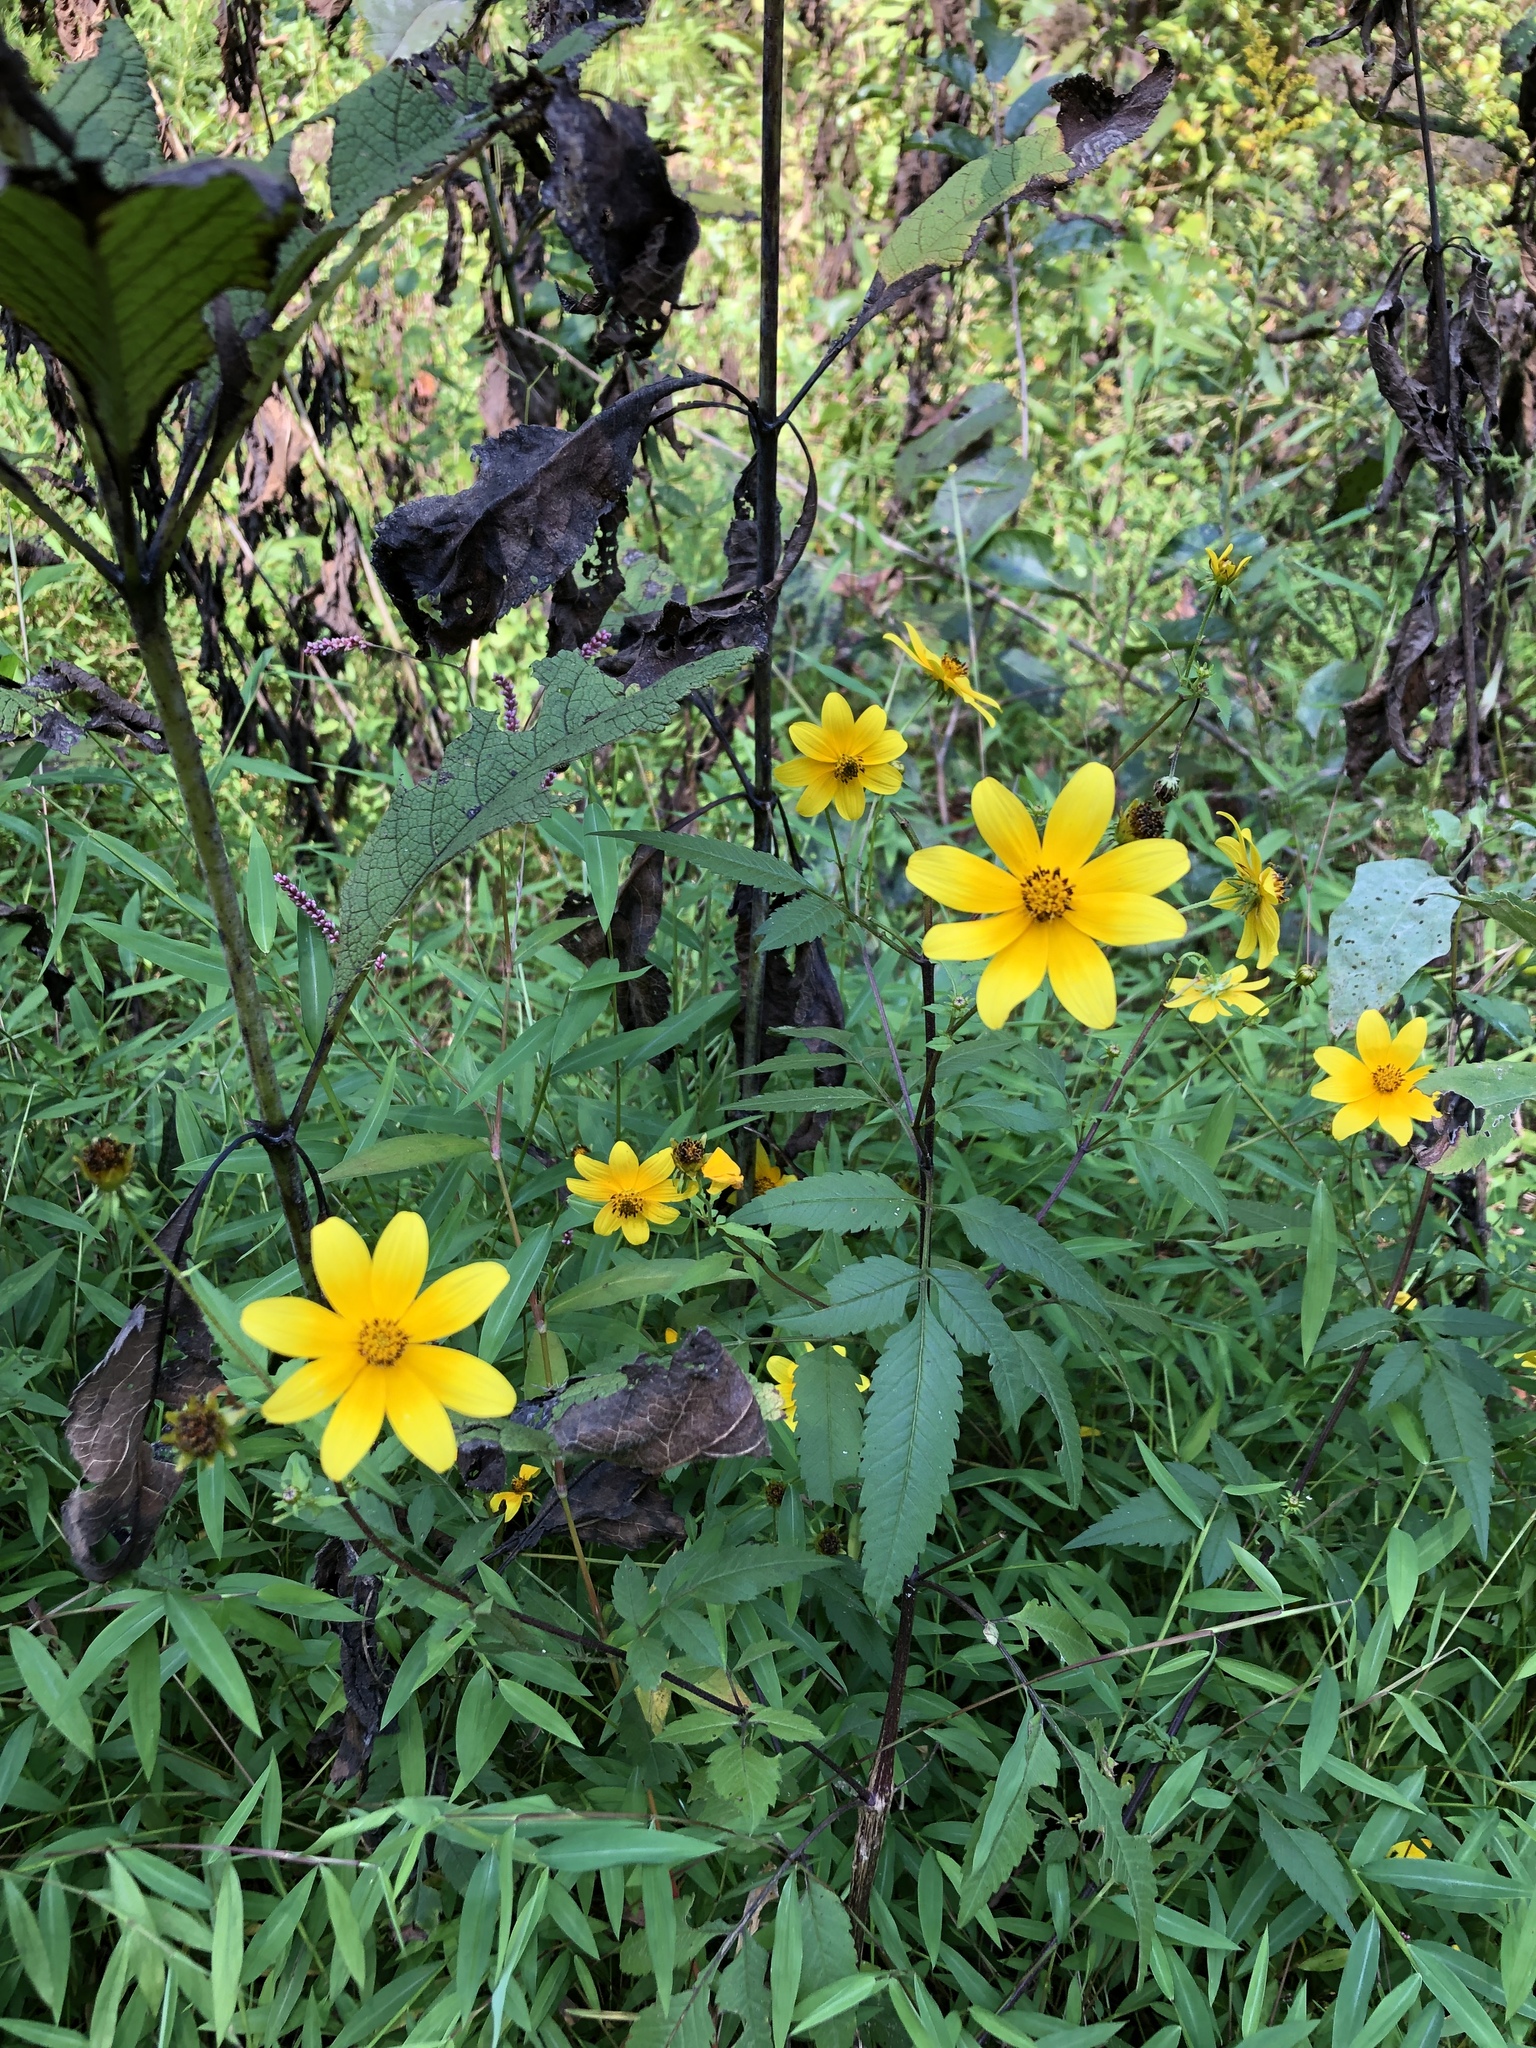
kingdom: Plantae
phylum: Tracheophyta
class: Magnoliopsida
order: Asterales
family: Asteraceae
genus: Bidens
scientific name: Bidens aristosa
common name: Western tickseed
